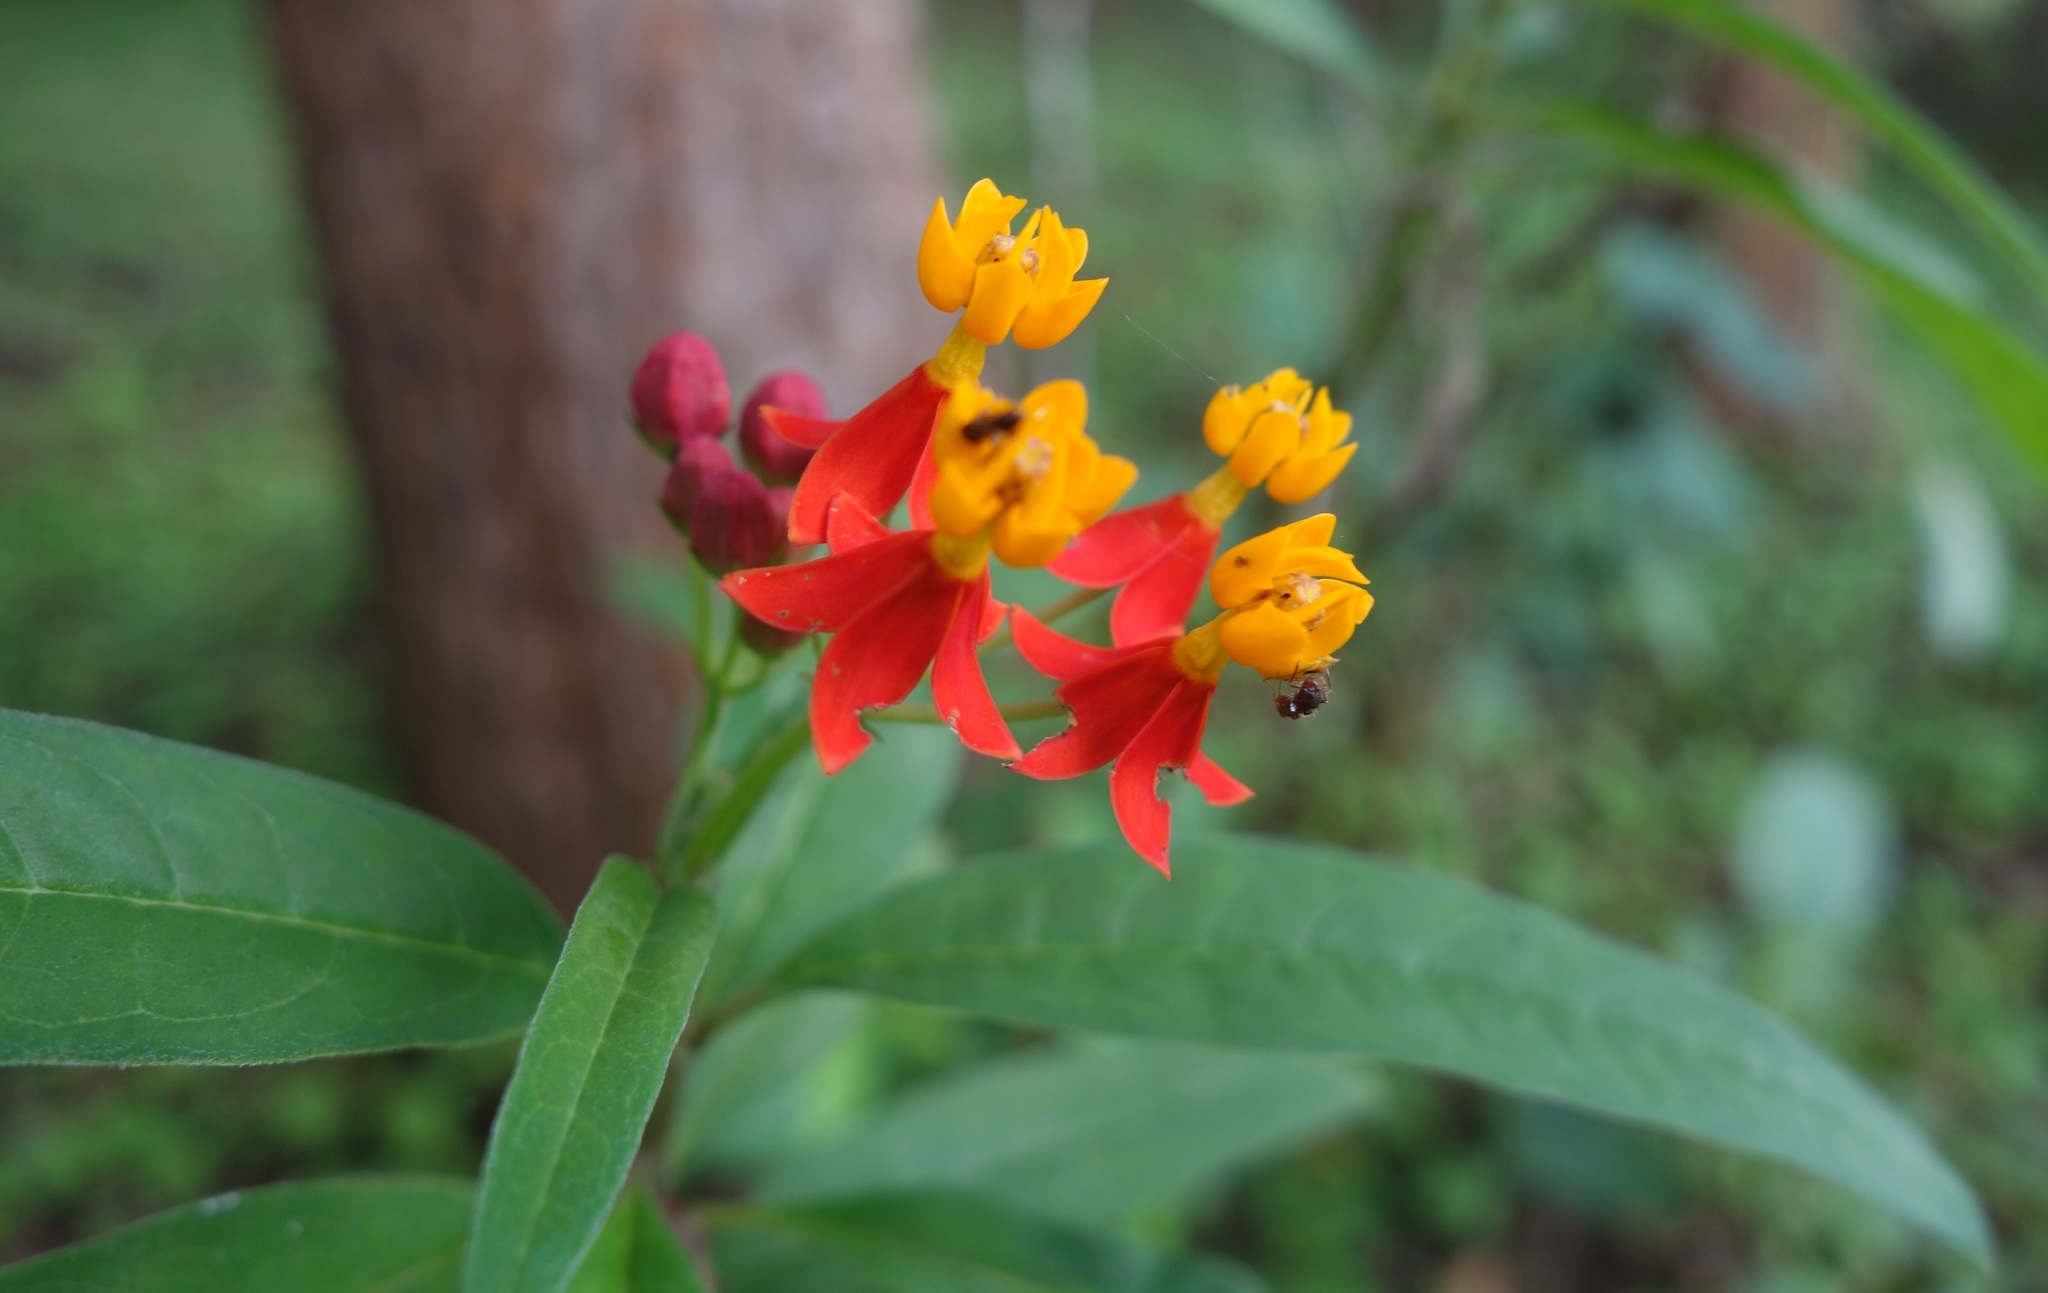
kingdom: Plantae
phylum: Tracheophyta
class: Magnoliopsida
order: Gentianales
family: Apocynaceae
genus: Asclepias
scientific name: Asclepias curassavica
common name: Bloodflower
